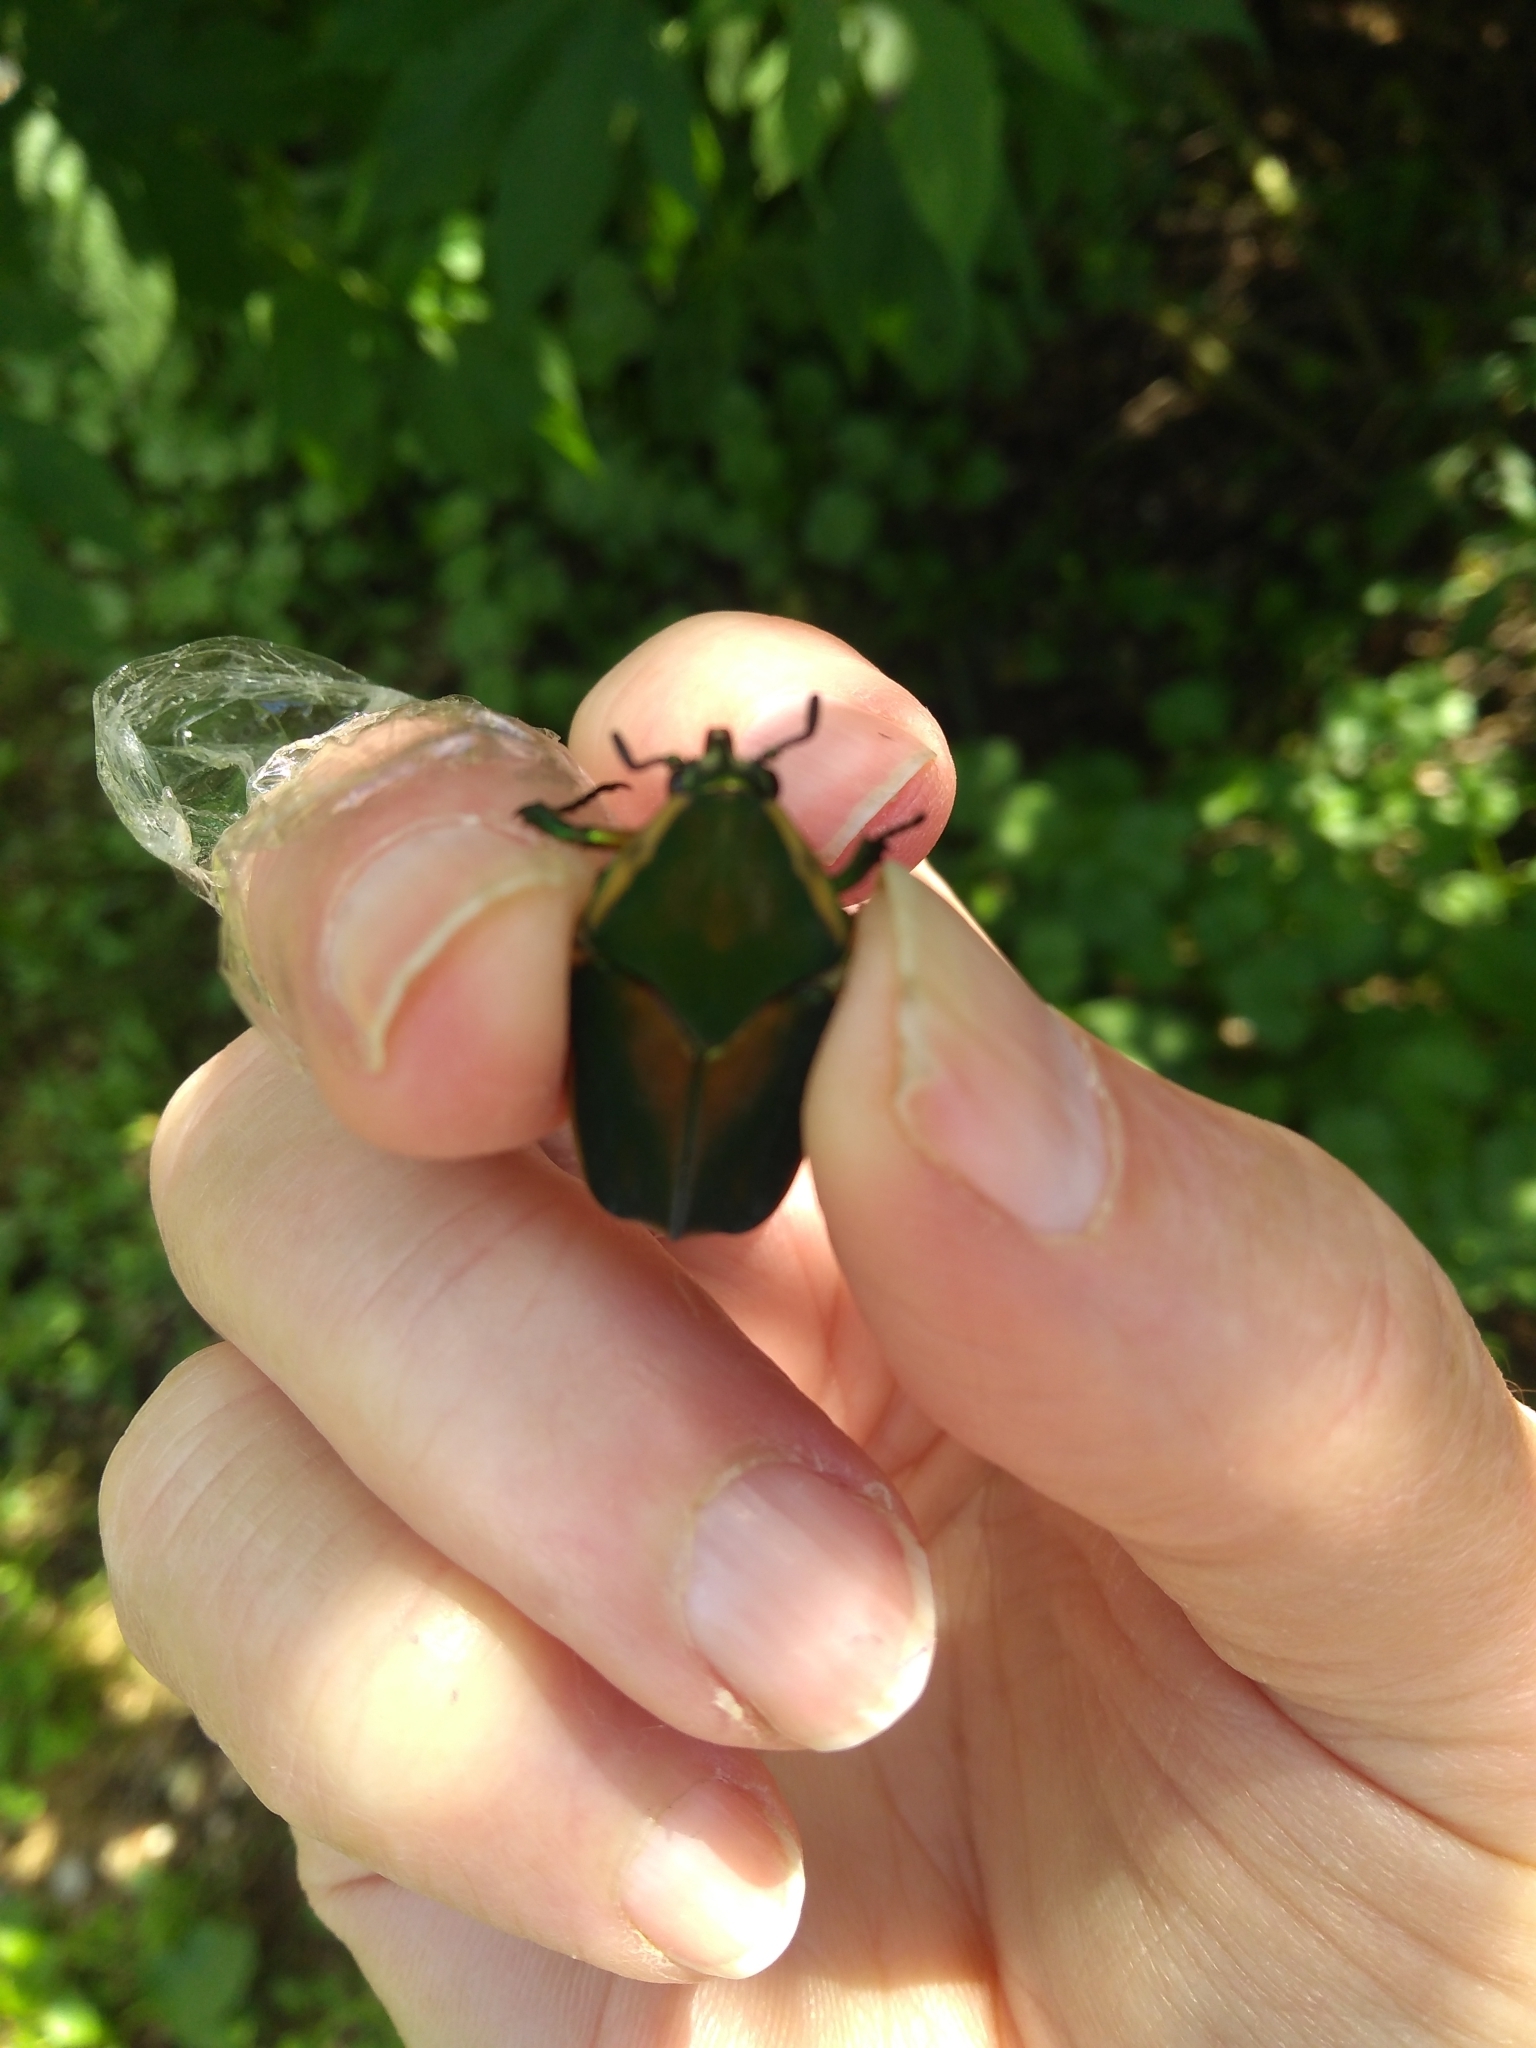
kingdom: Animalia
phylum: Arthropoda
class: Insecta
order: Coleoptera
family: Scarabaeidae
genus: Cotinis
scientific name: Cotinis nitida
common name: Common green june beetle
